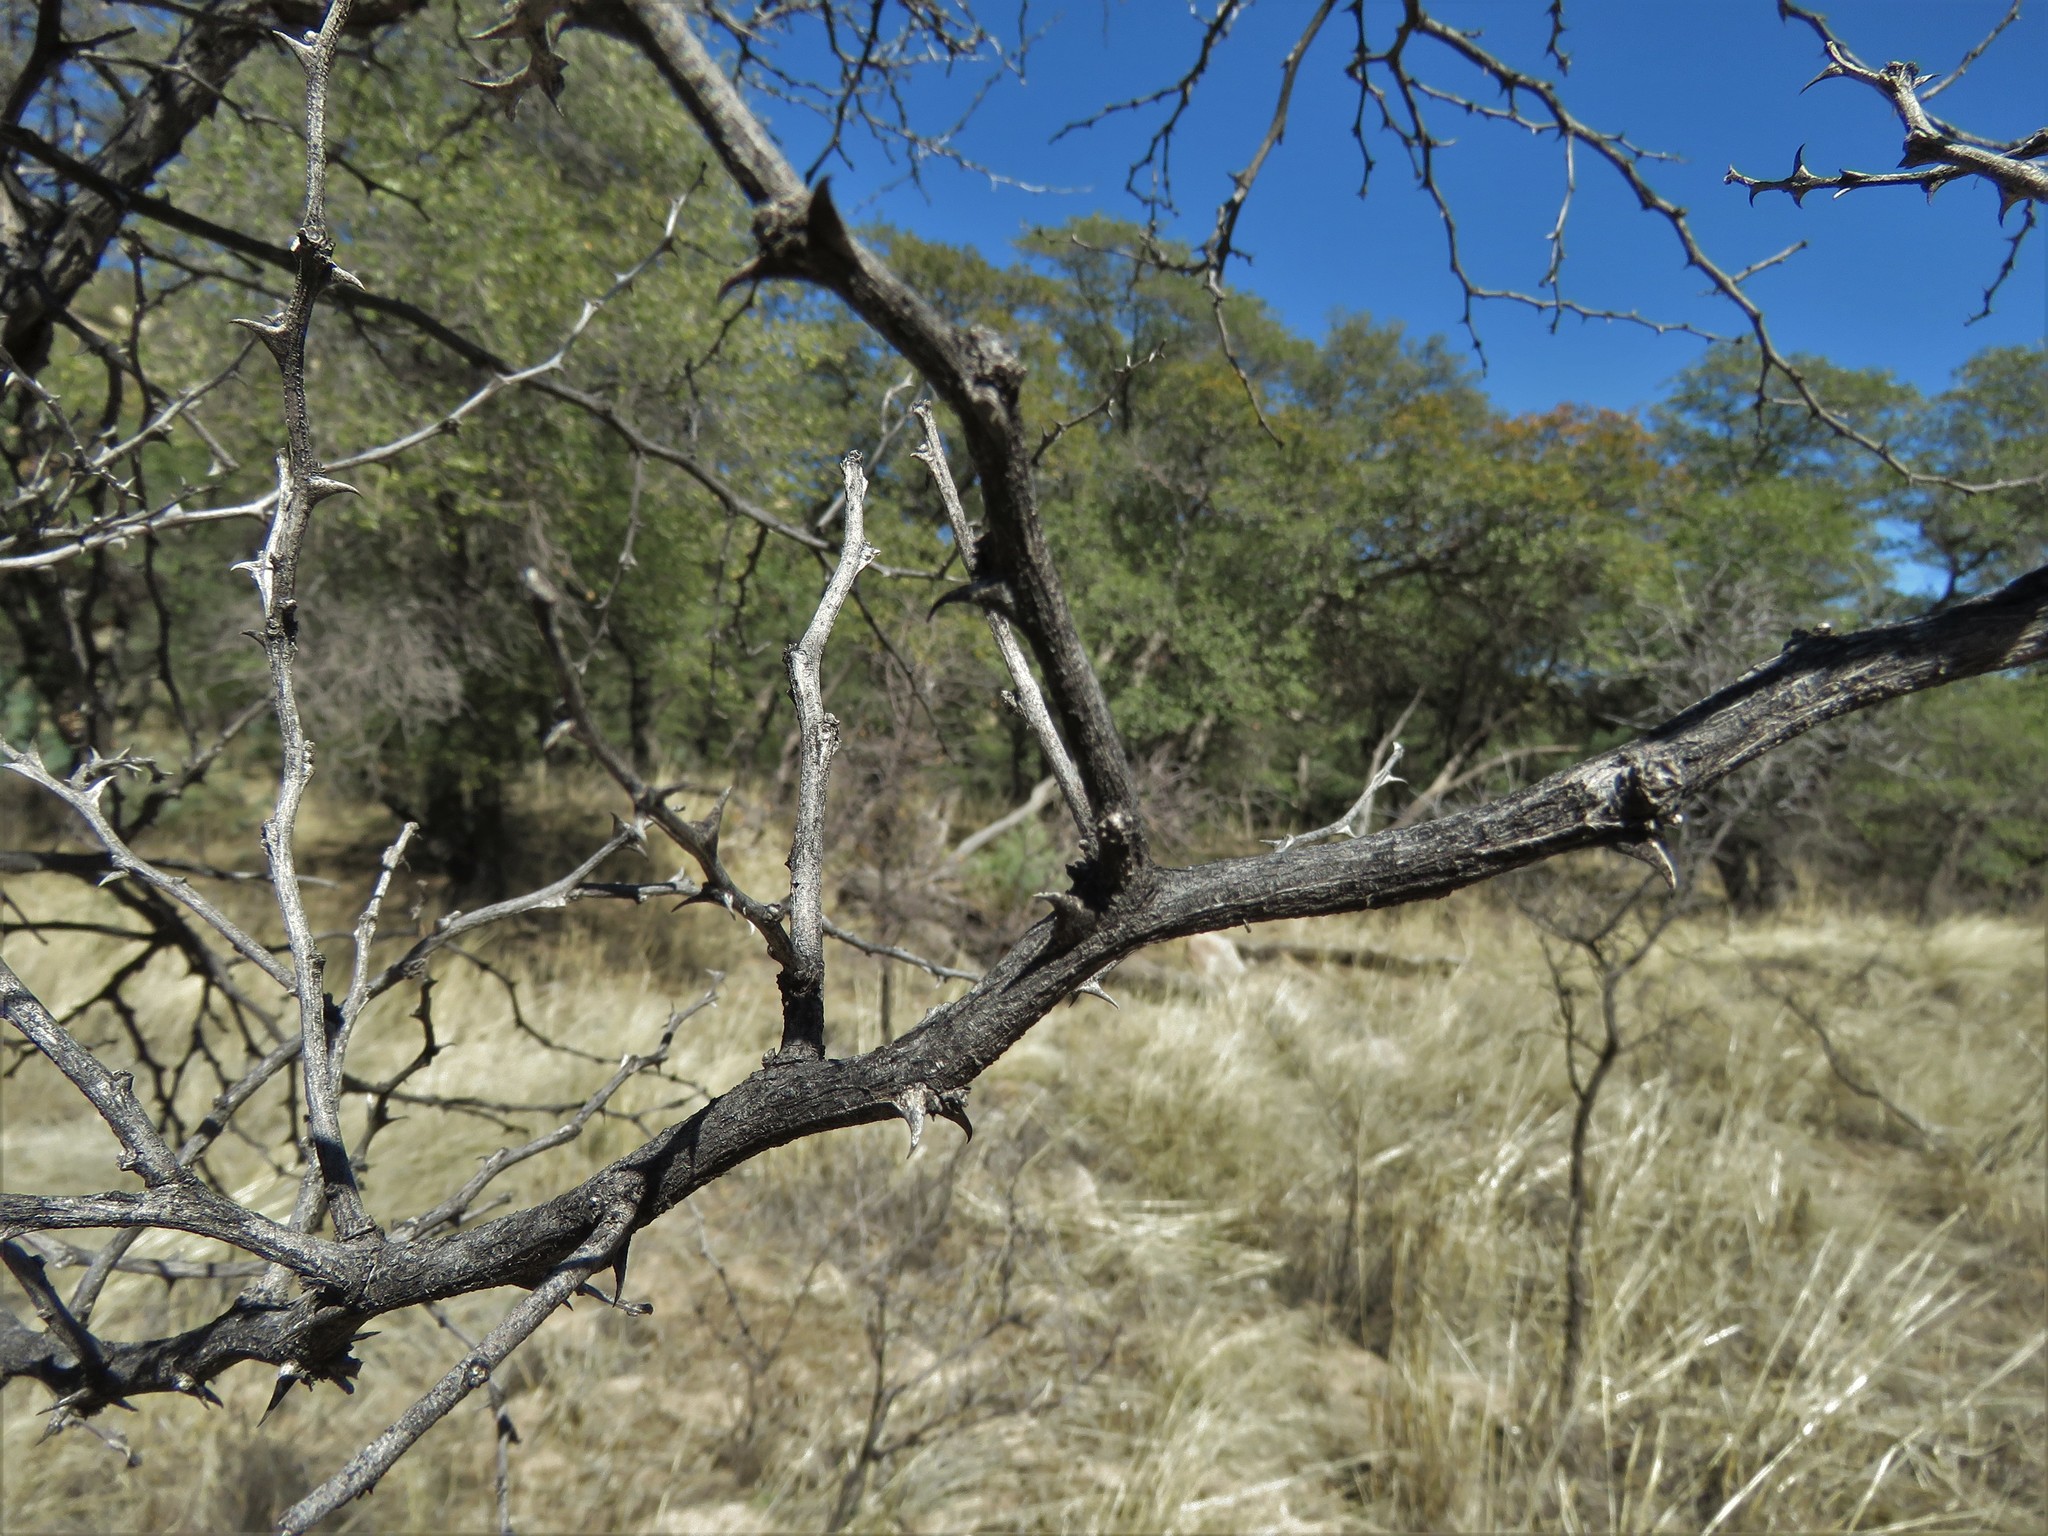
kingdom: Plantae
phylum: Tracheophyta
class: Magnoliopsida
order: Fabales
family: Fabaceae
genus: Mimosa
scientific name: Mimosa aculeaticarpa
